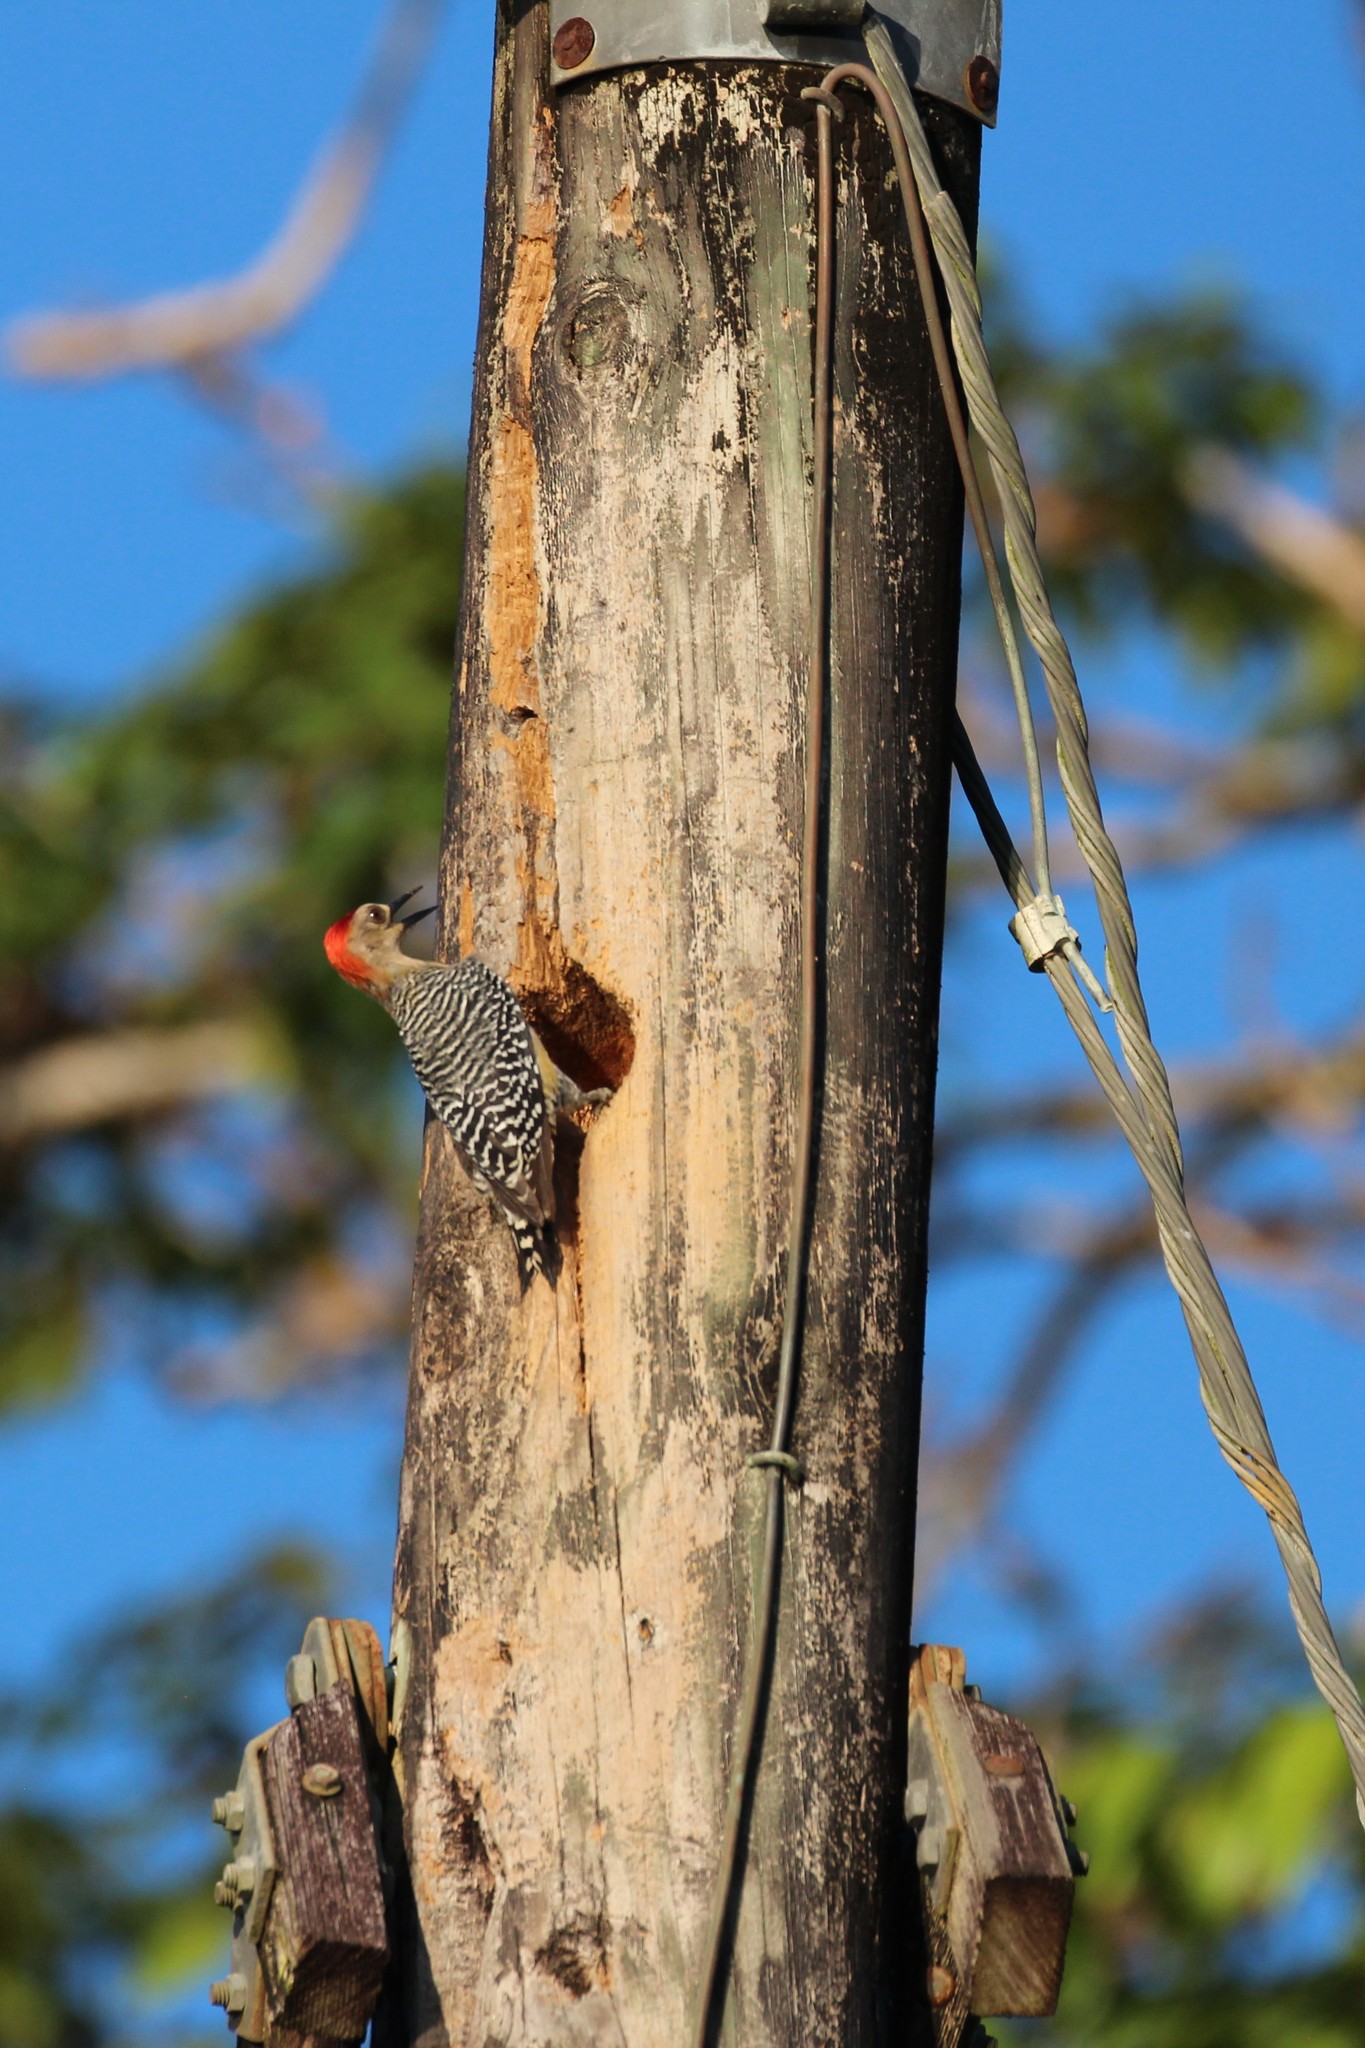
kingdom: Animalia
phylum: Chordata
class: Aves
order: Piciformes
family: Picidae
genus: Melanerpes
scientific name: Melanerpes rubricapillus
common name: Red-crowned woodpecker
